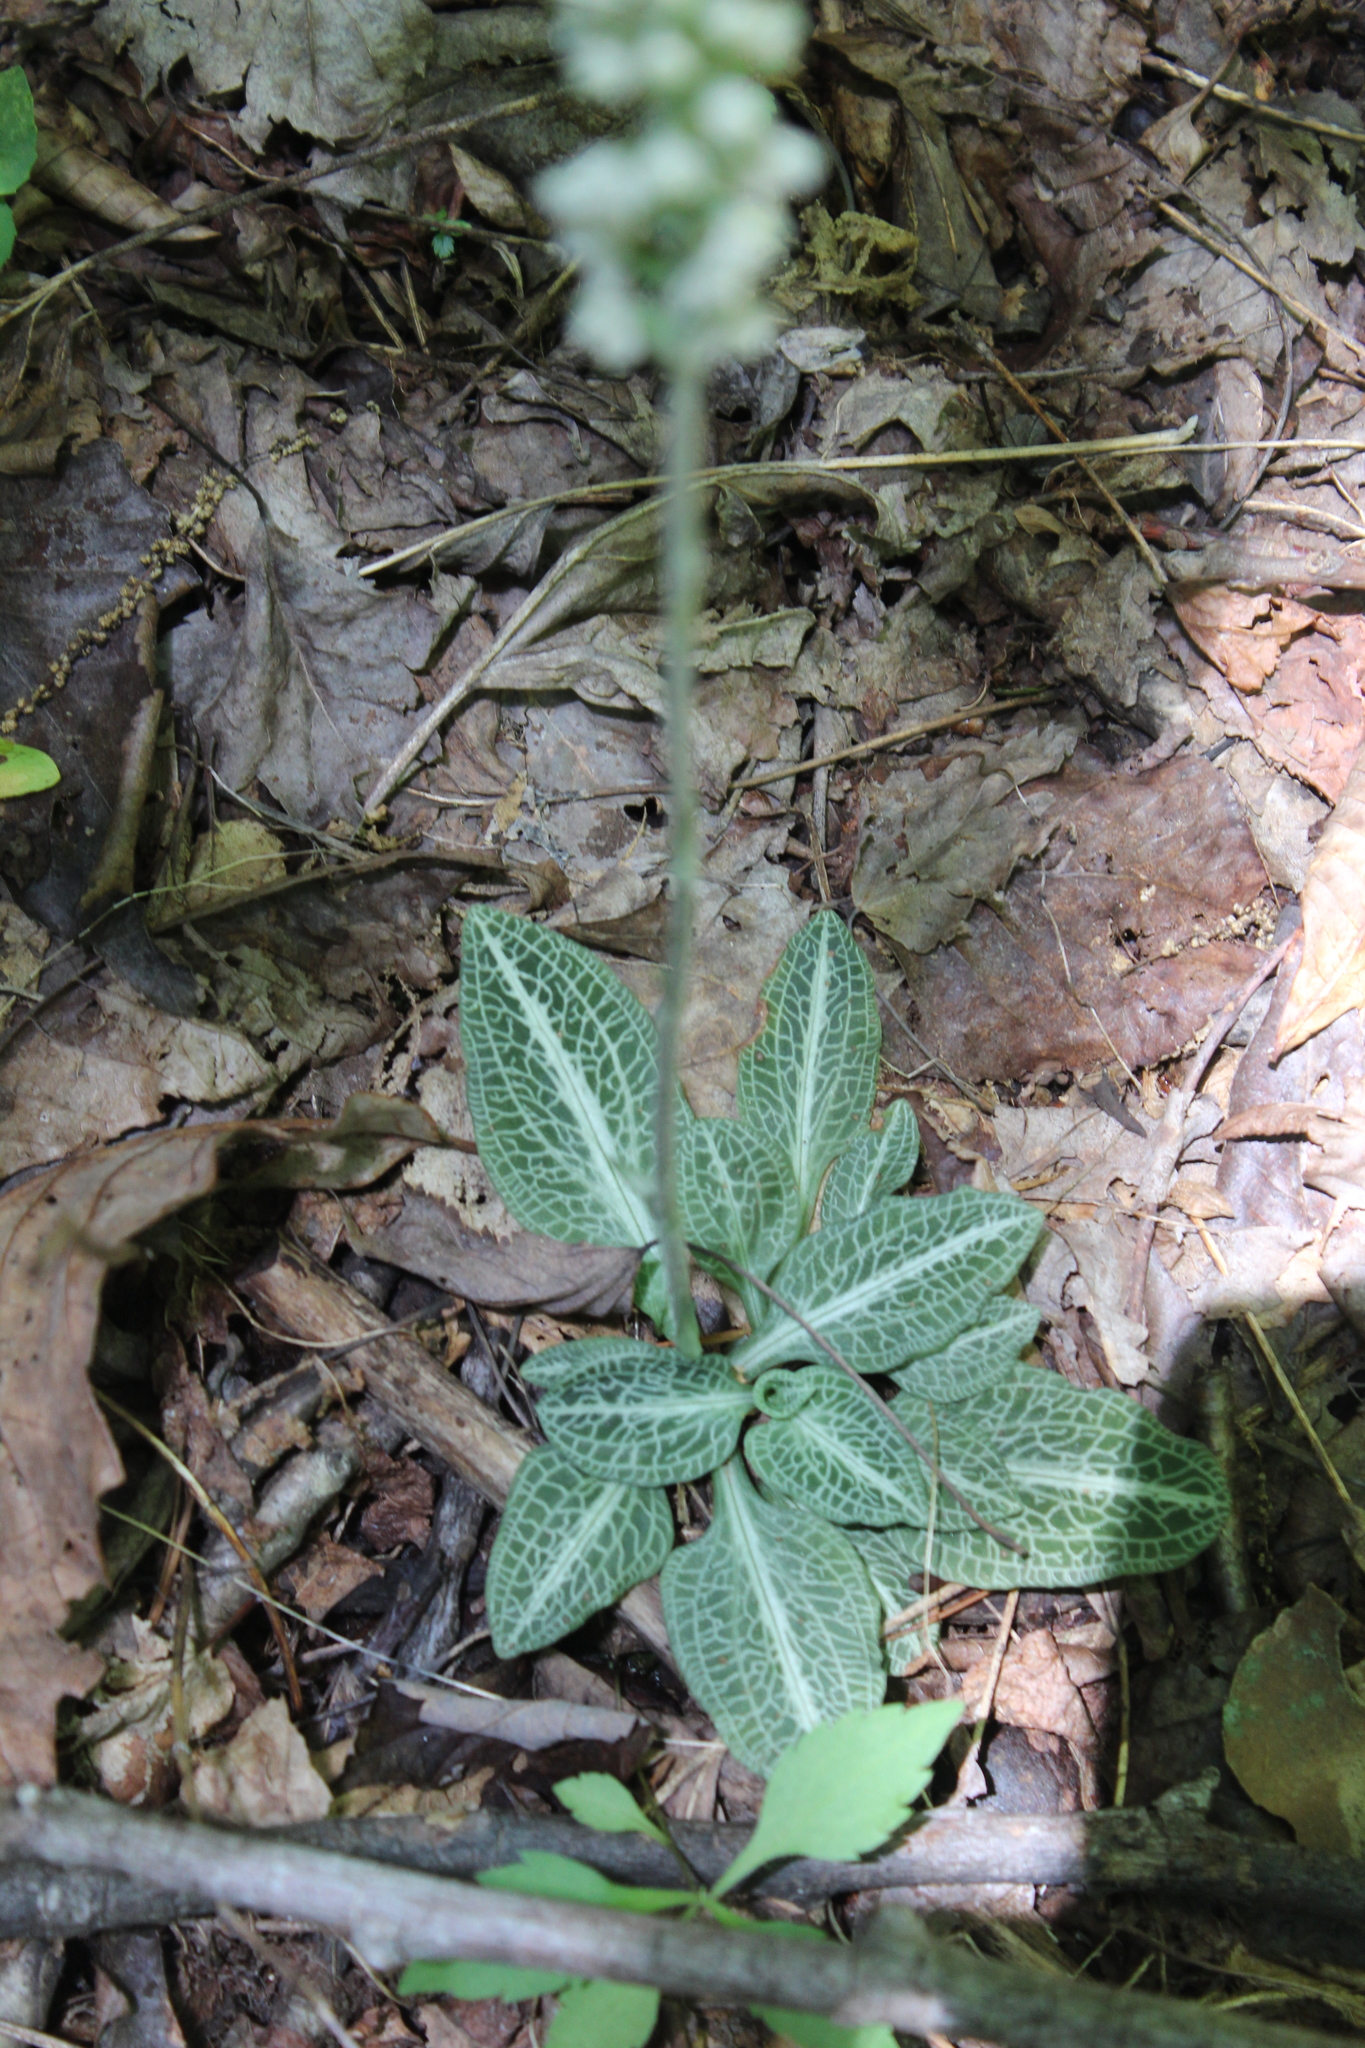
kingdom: Plantae
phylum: Tracheophyta
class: Liliopsida
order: Asparagales
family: Orchidaceae
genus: Goodyera
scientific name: Goodyera pubescens
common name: Downy rattlesnake-plantain
